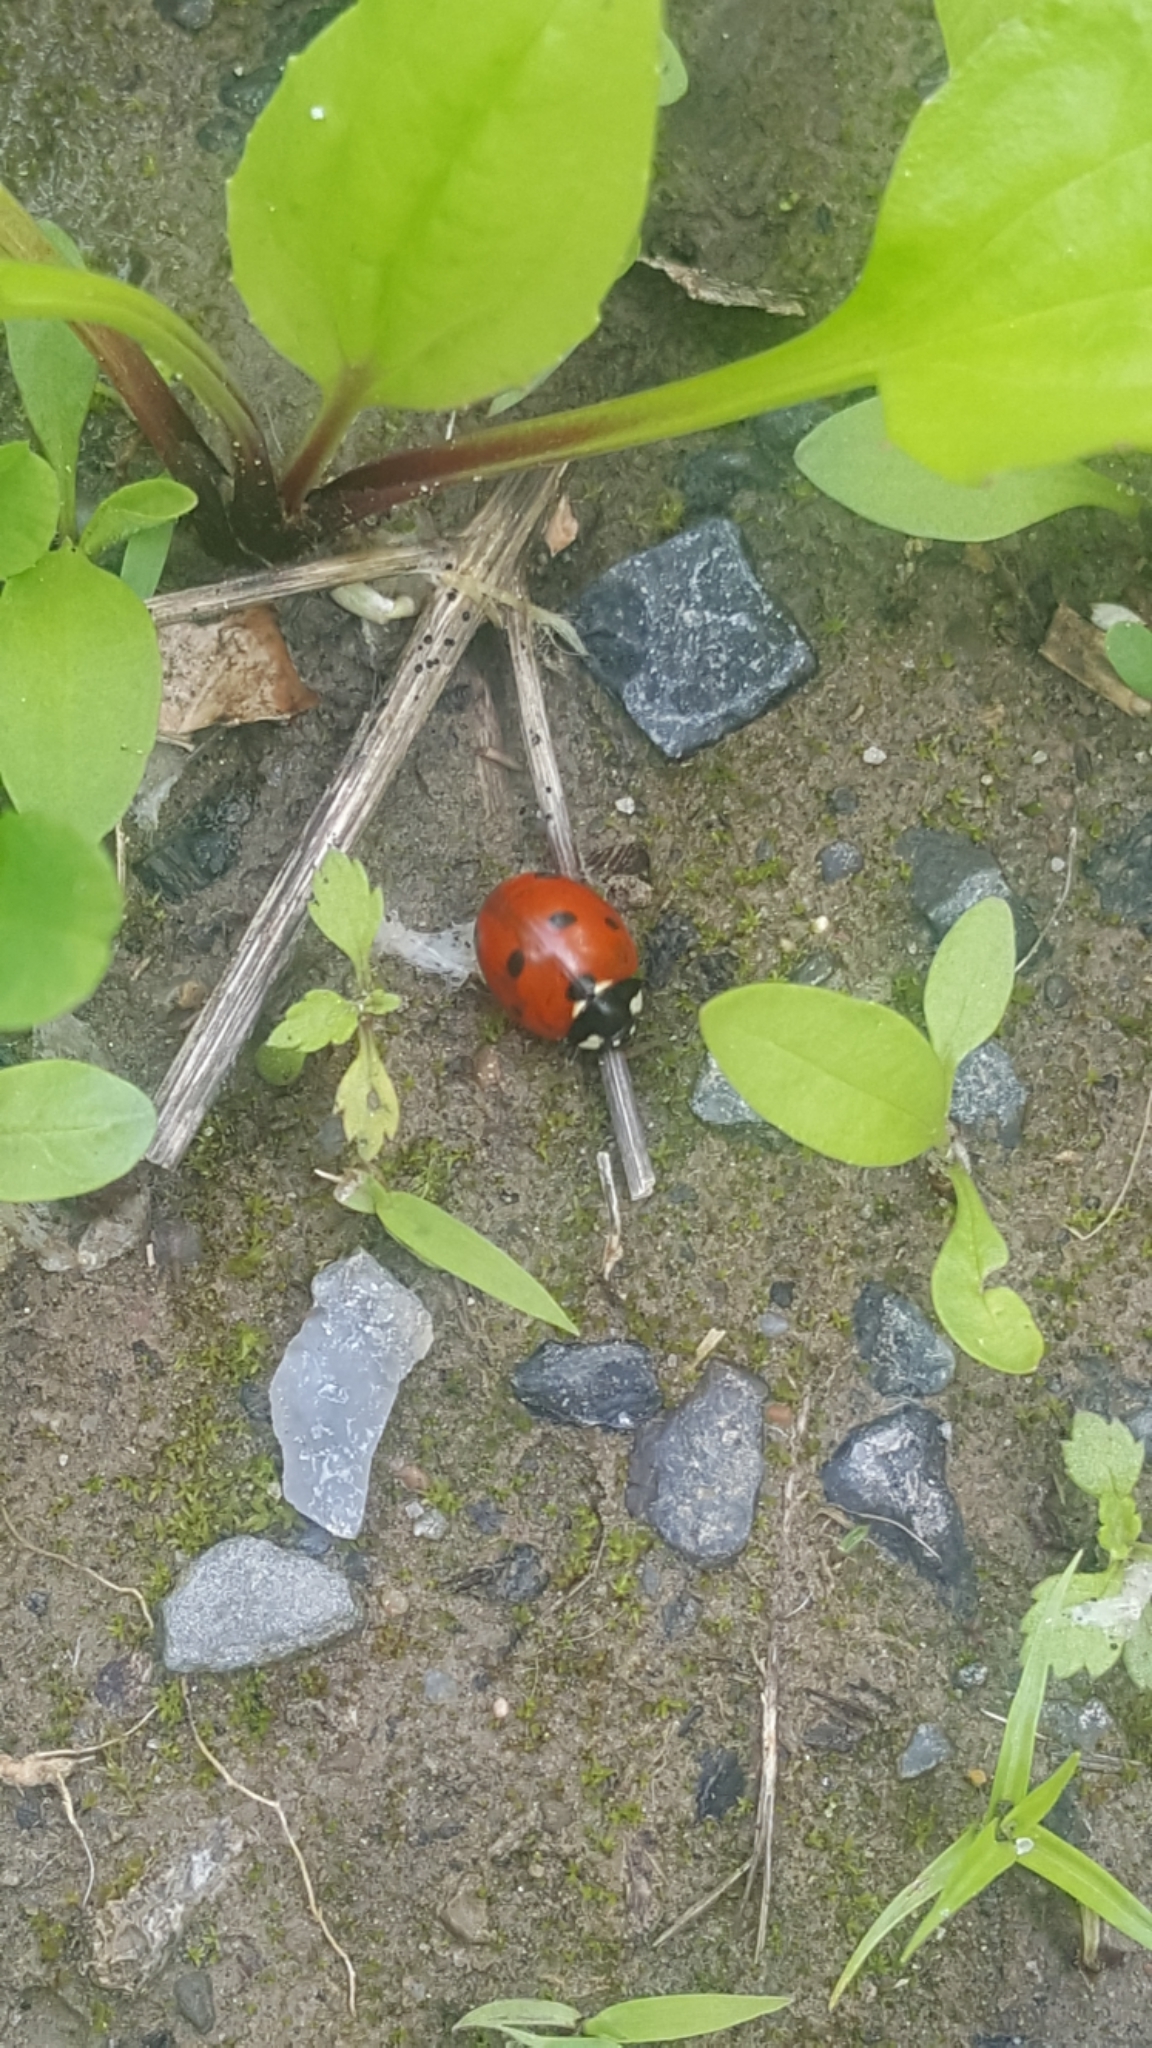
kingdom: Animalia
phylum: Arthropoda
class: Insecta
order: Coleoptera
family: Coccinellidae
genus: Coccinella
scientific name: Coccinella septempunctata
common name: Sevenspotted lady beetle
